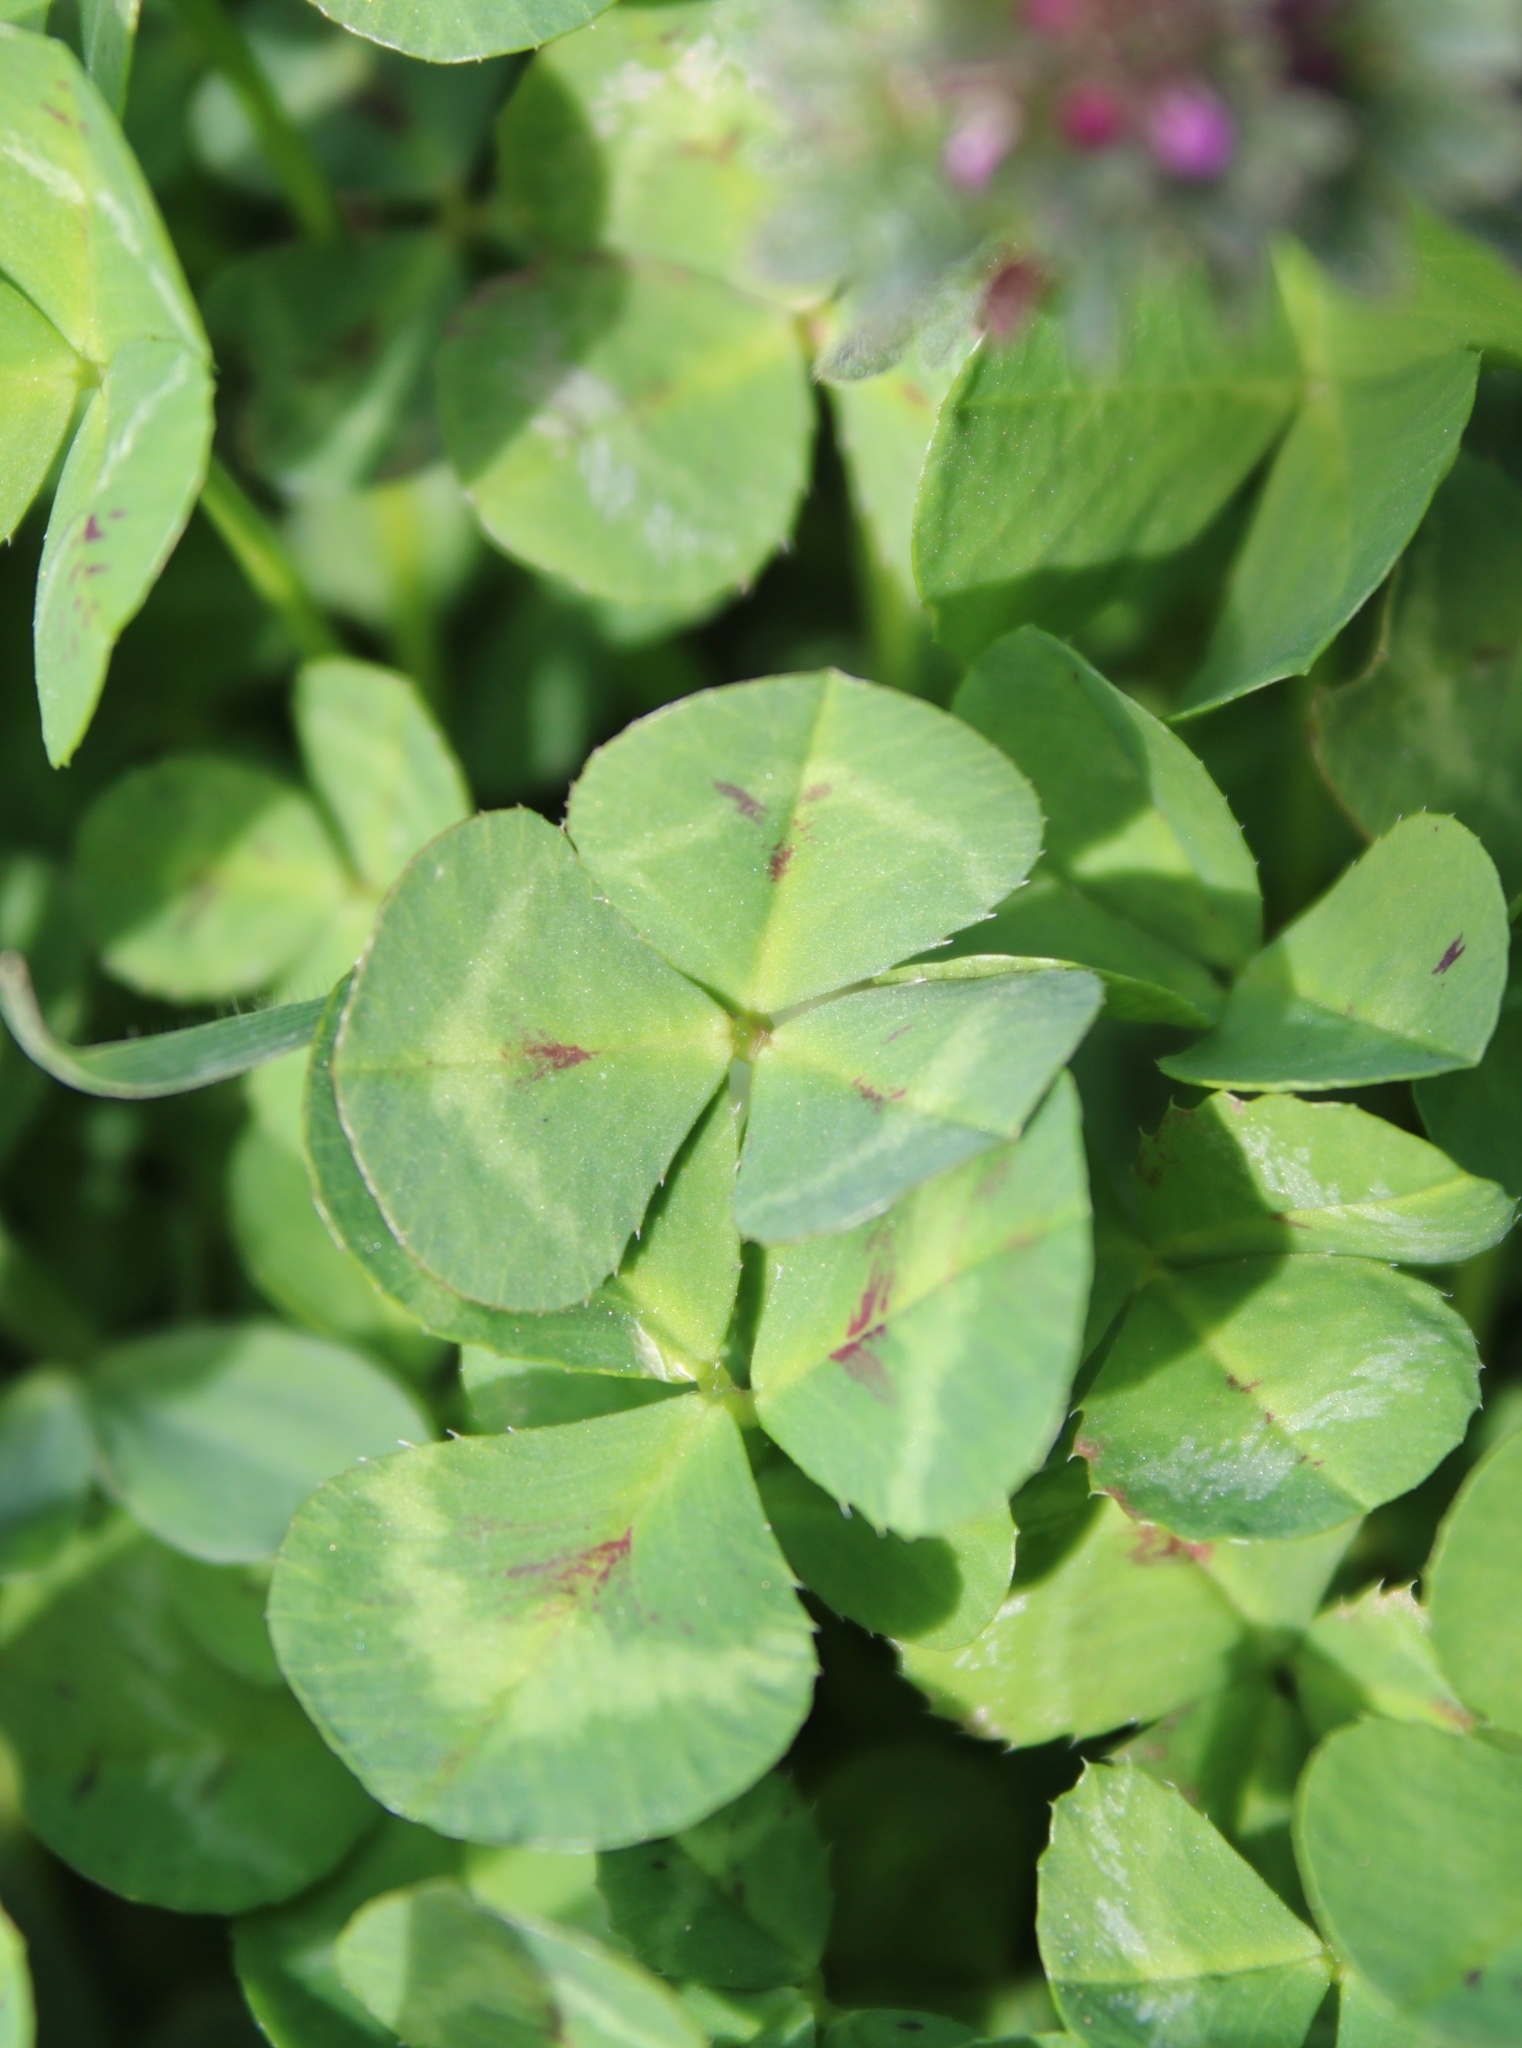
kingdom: Plantae
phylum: Tracheophyta
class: Magnoliopsida
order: Fabales
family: Fabaceae
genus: Trifolium
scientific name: Trifolium repens
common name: White clover
